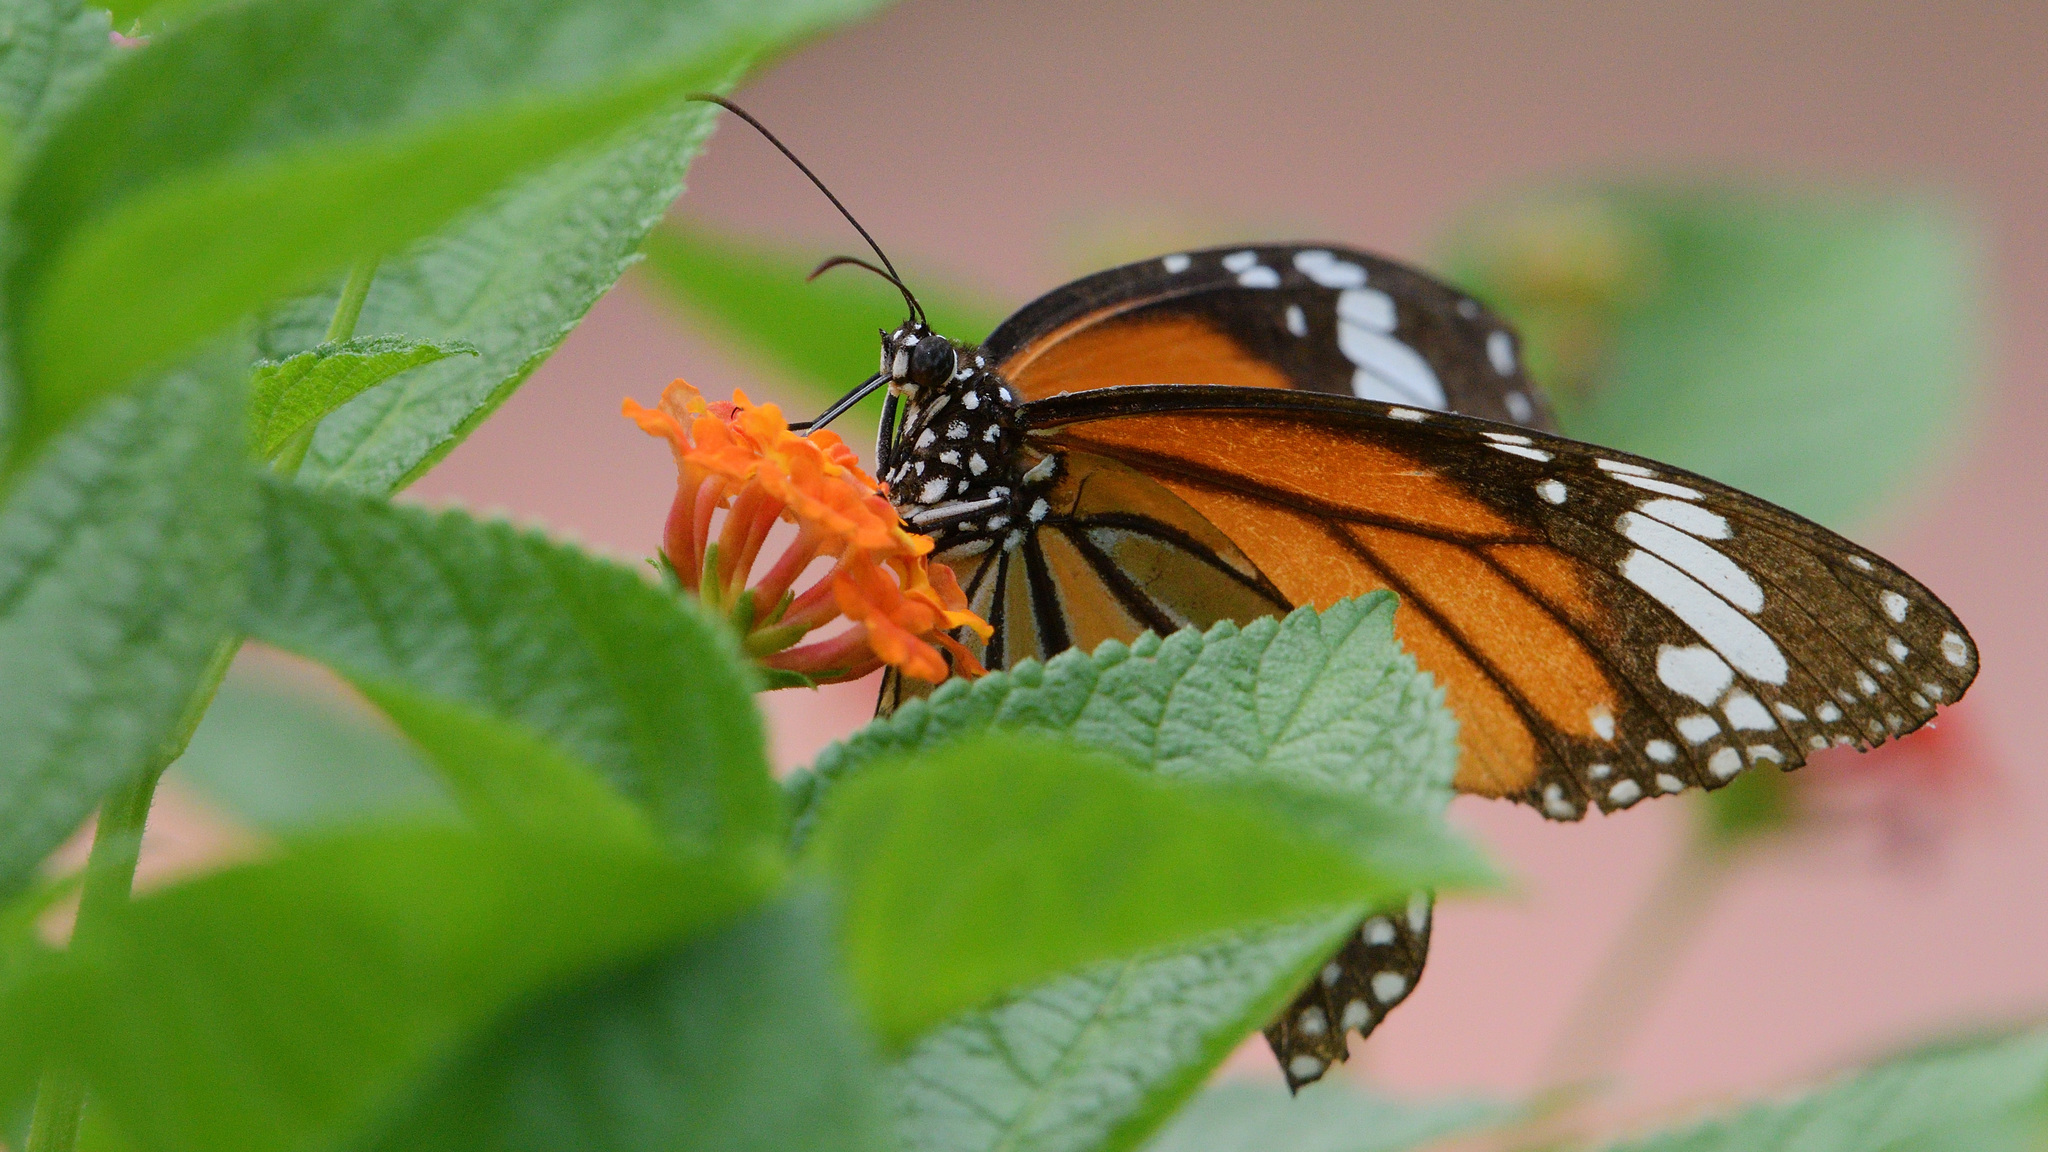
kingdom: Animalia
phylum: Arthropoda
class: Insecta
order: Lepidoptera
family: Nymphalidae
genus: Danaus
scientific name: Danaus genutia
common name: Common tiger butterfly
